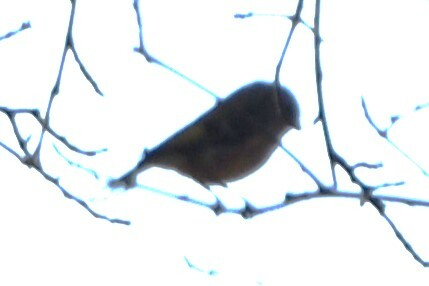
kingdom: Animalia
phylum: Chordata
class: Aves
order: Passeriformes
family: Parulidae
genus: Setophaga
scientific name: Setophaga coronata
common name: Myrtle warbler
